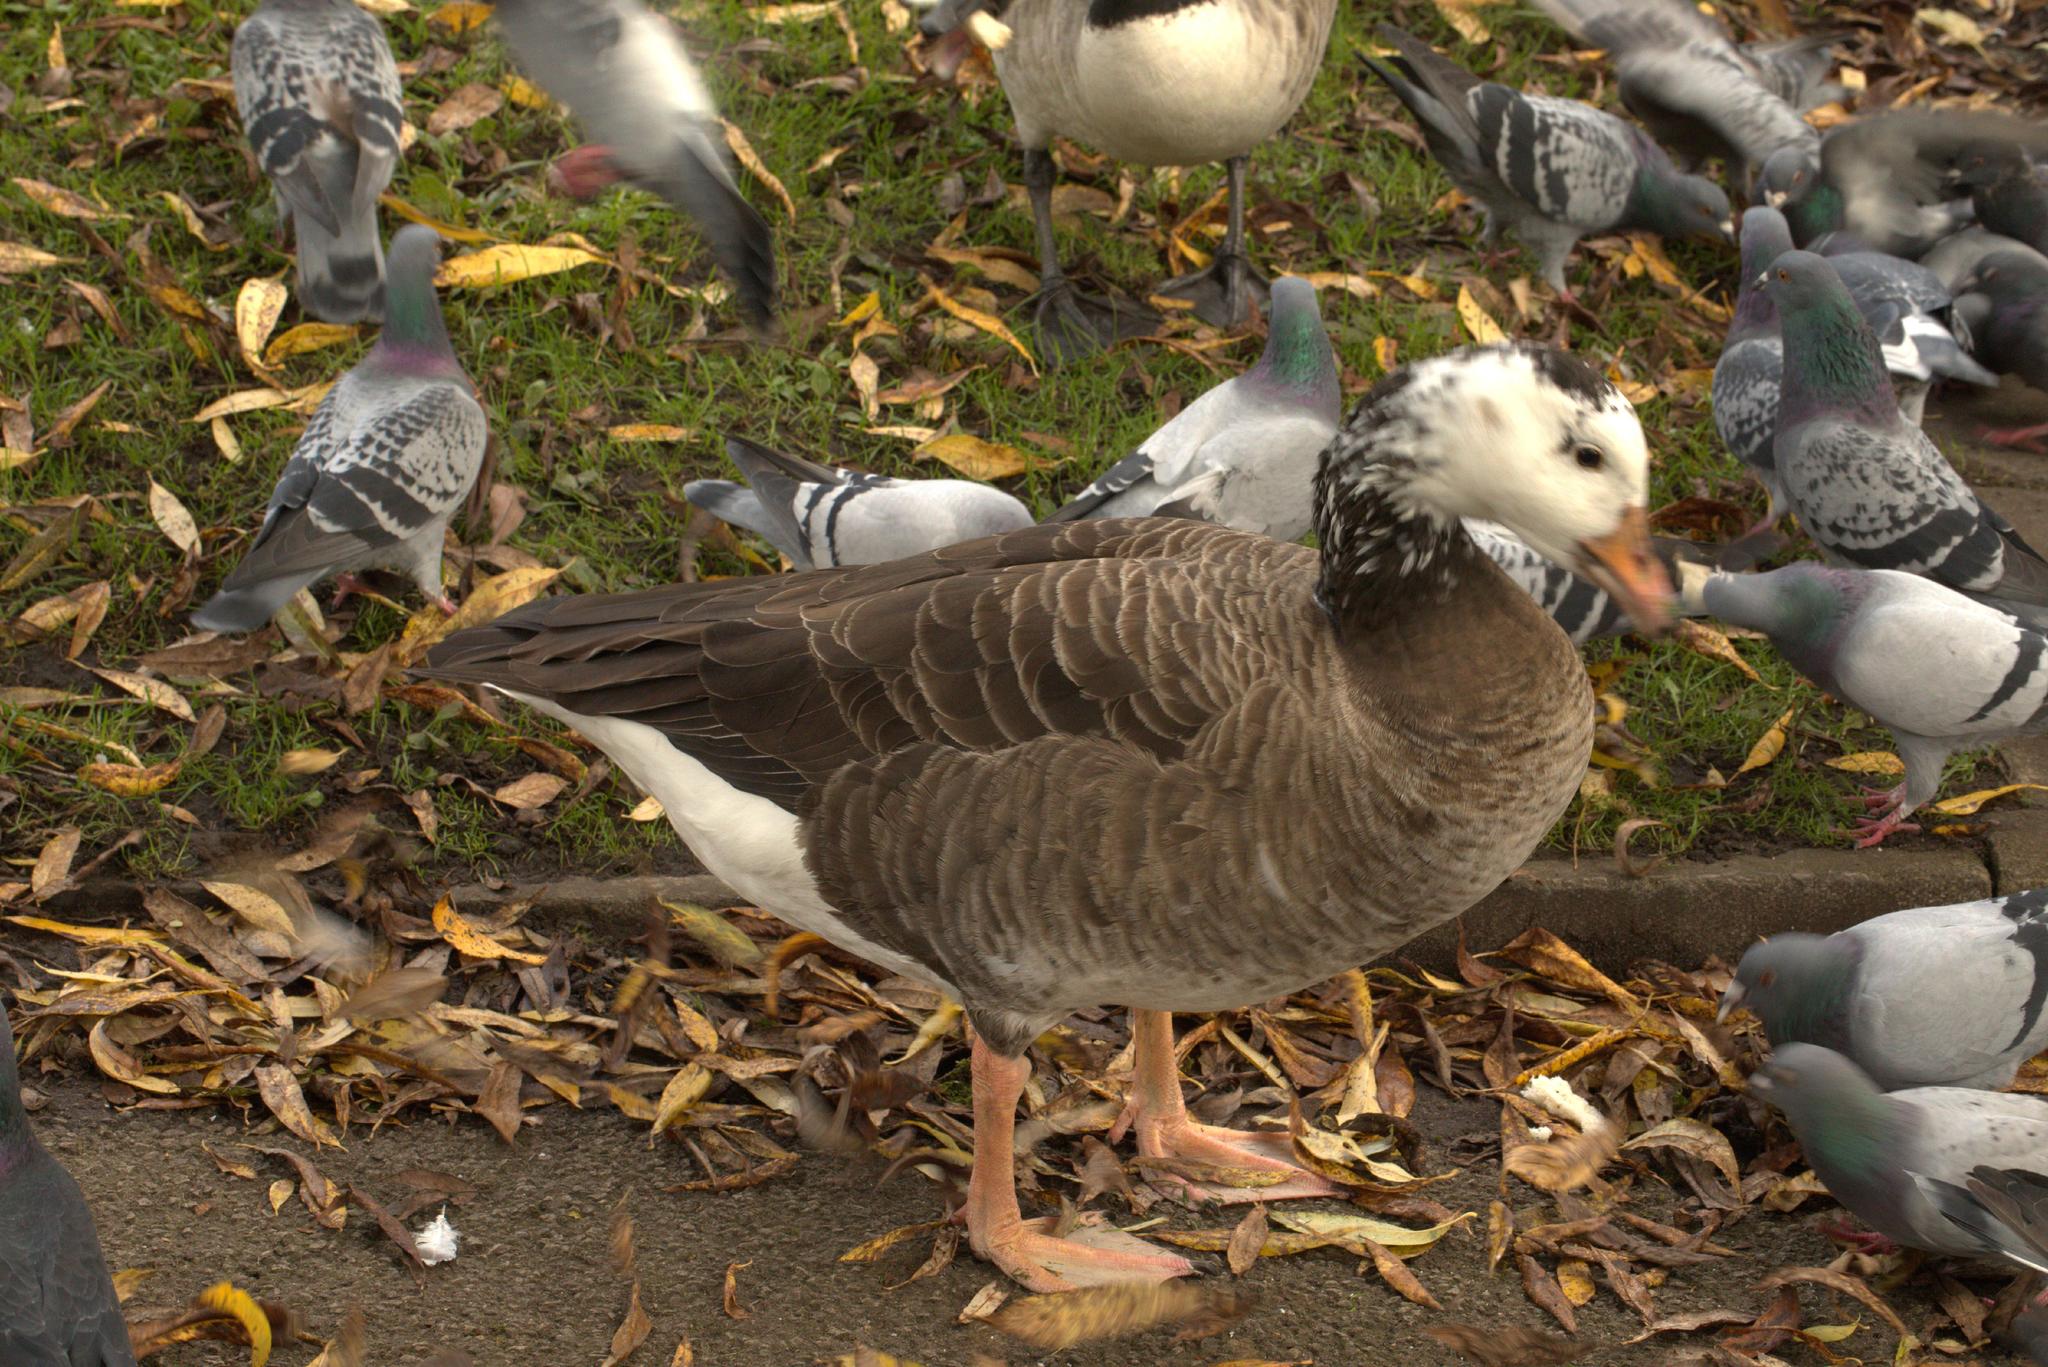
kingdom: Animalia
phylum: Chordata
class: Aves
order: Anseriformes
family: Anatidae
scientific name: Anatidae
